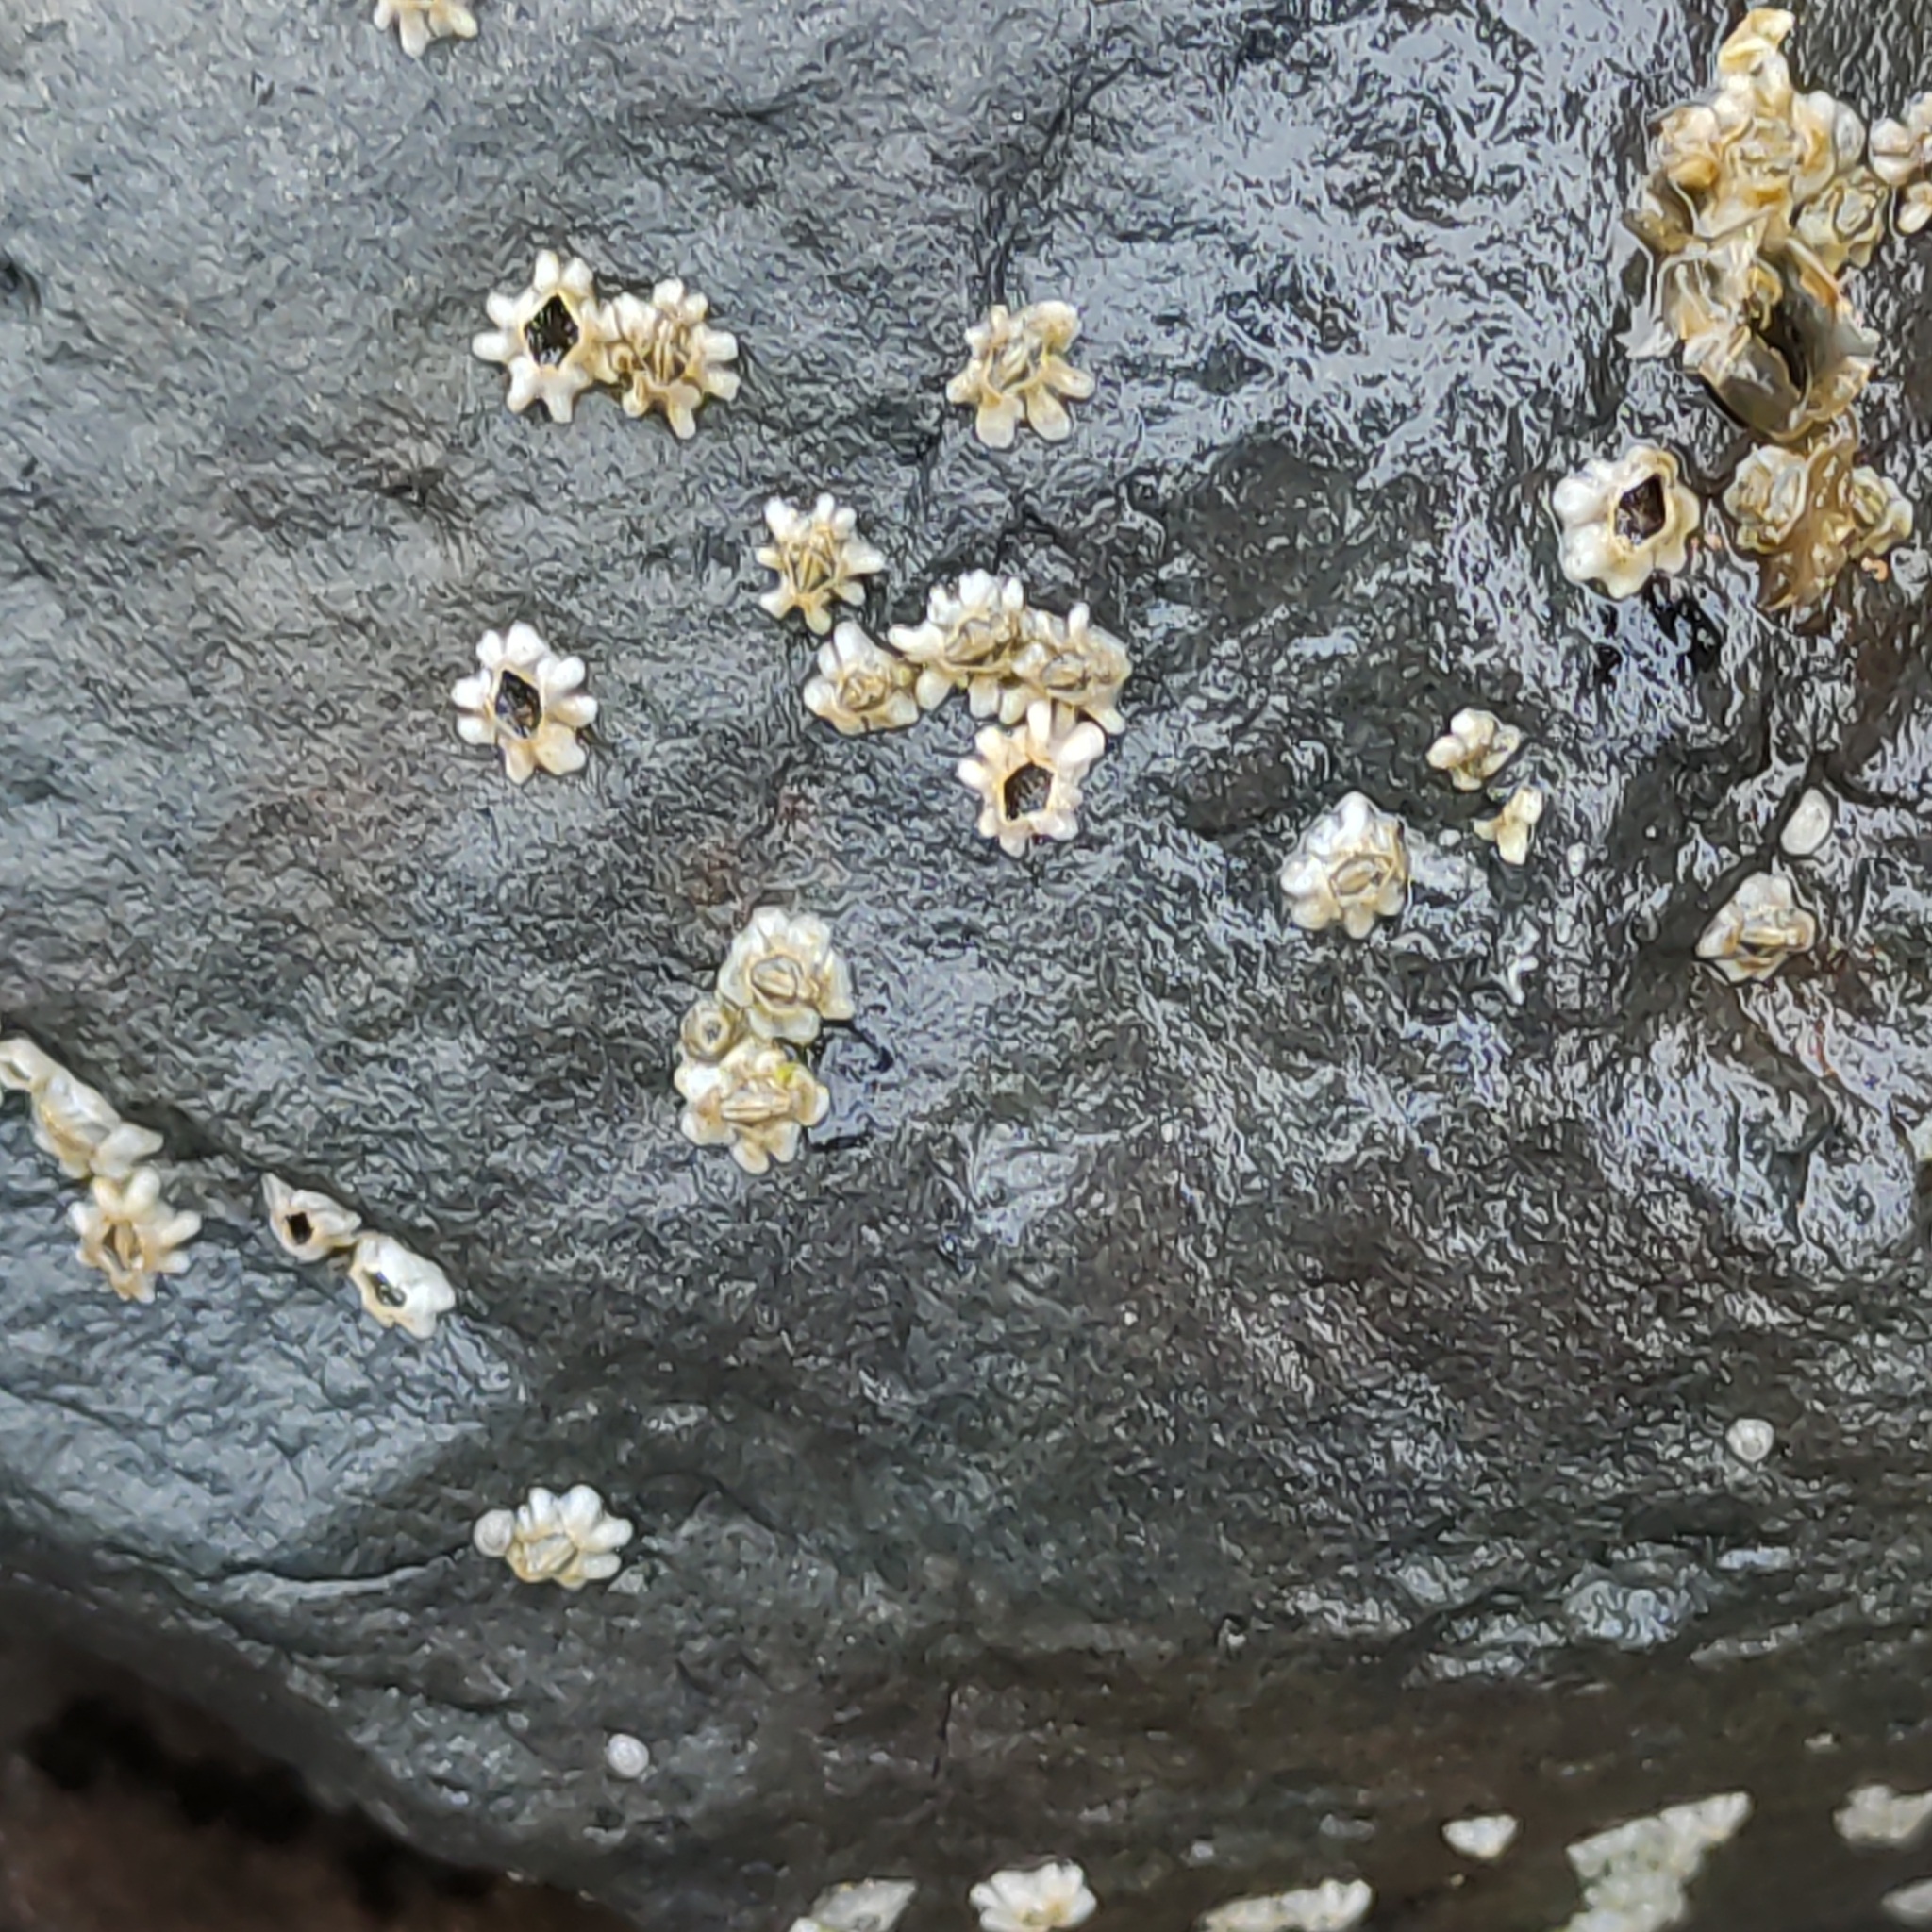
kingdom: Animalia
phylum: Arthropoda
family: Elminiidae
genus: Austrominius
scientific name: Austrominius modestus
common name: Australasian barnacle
